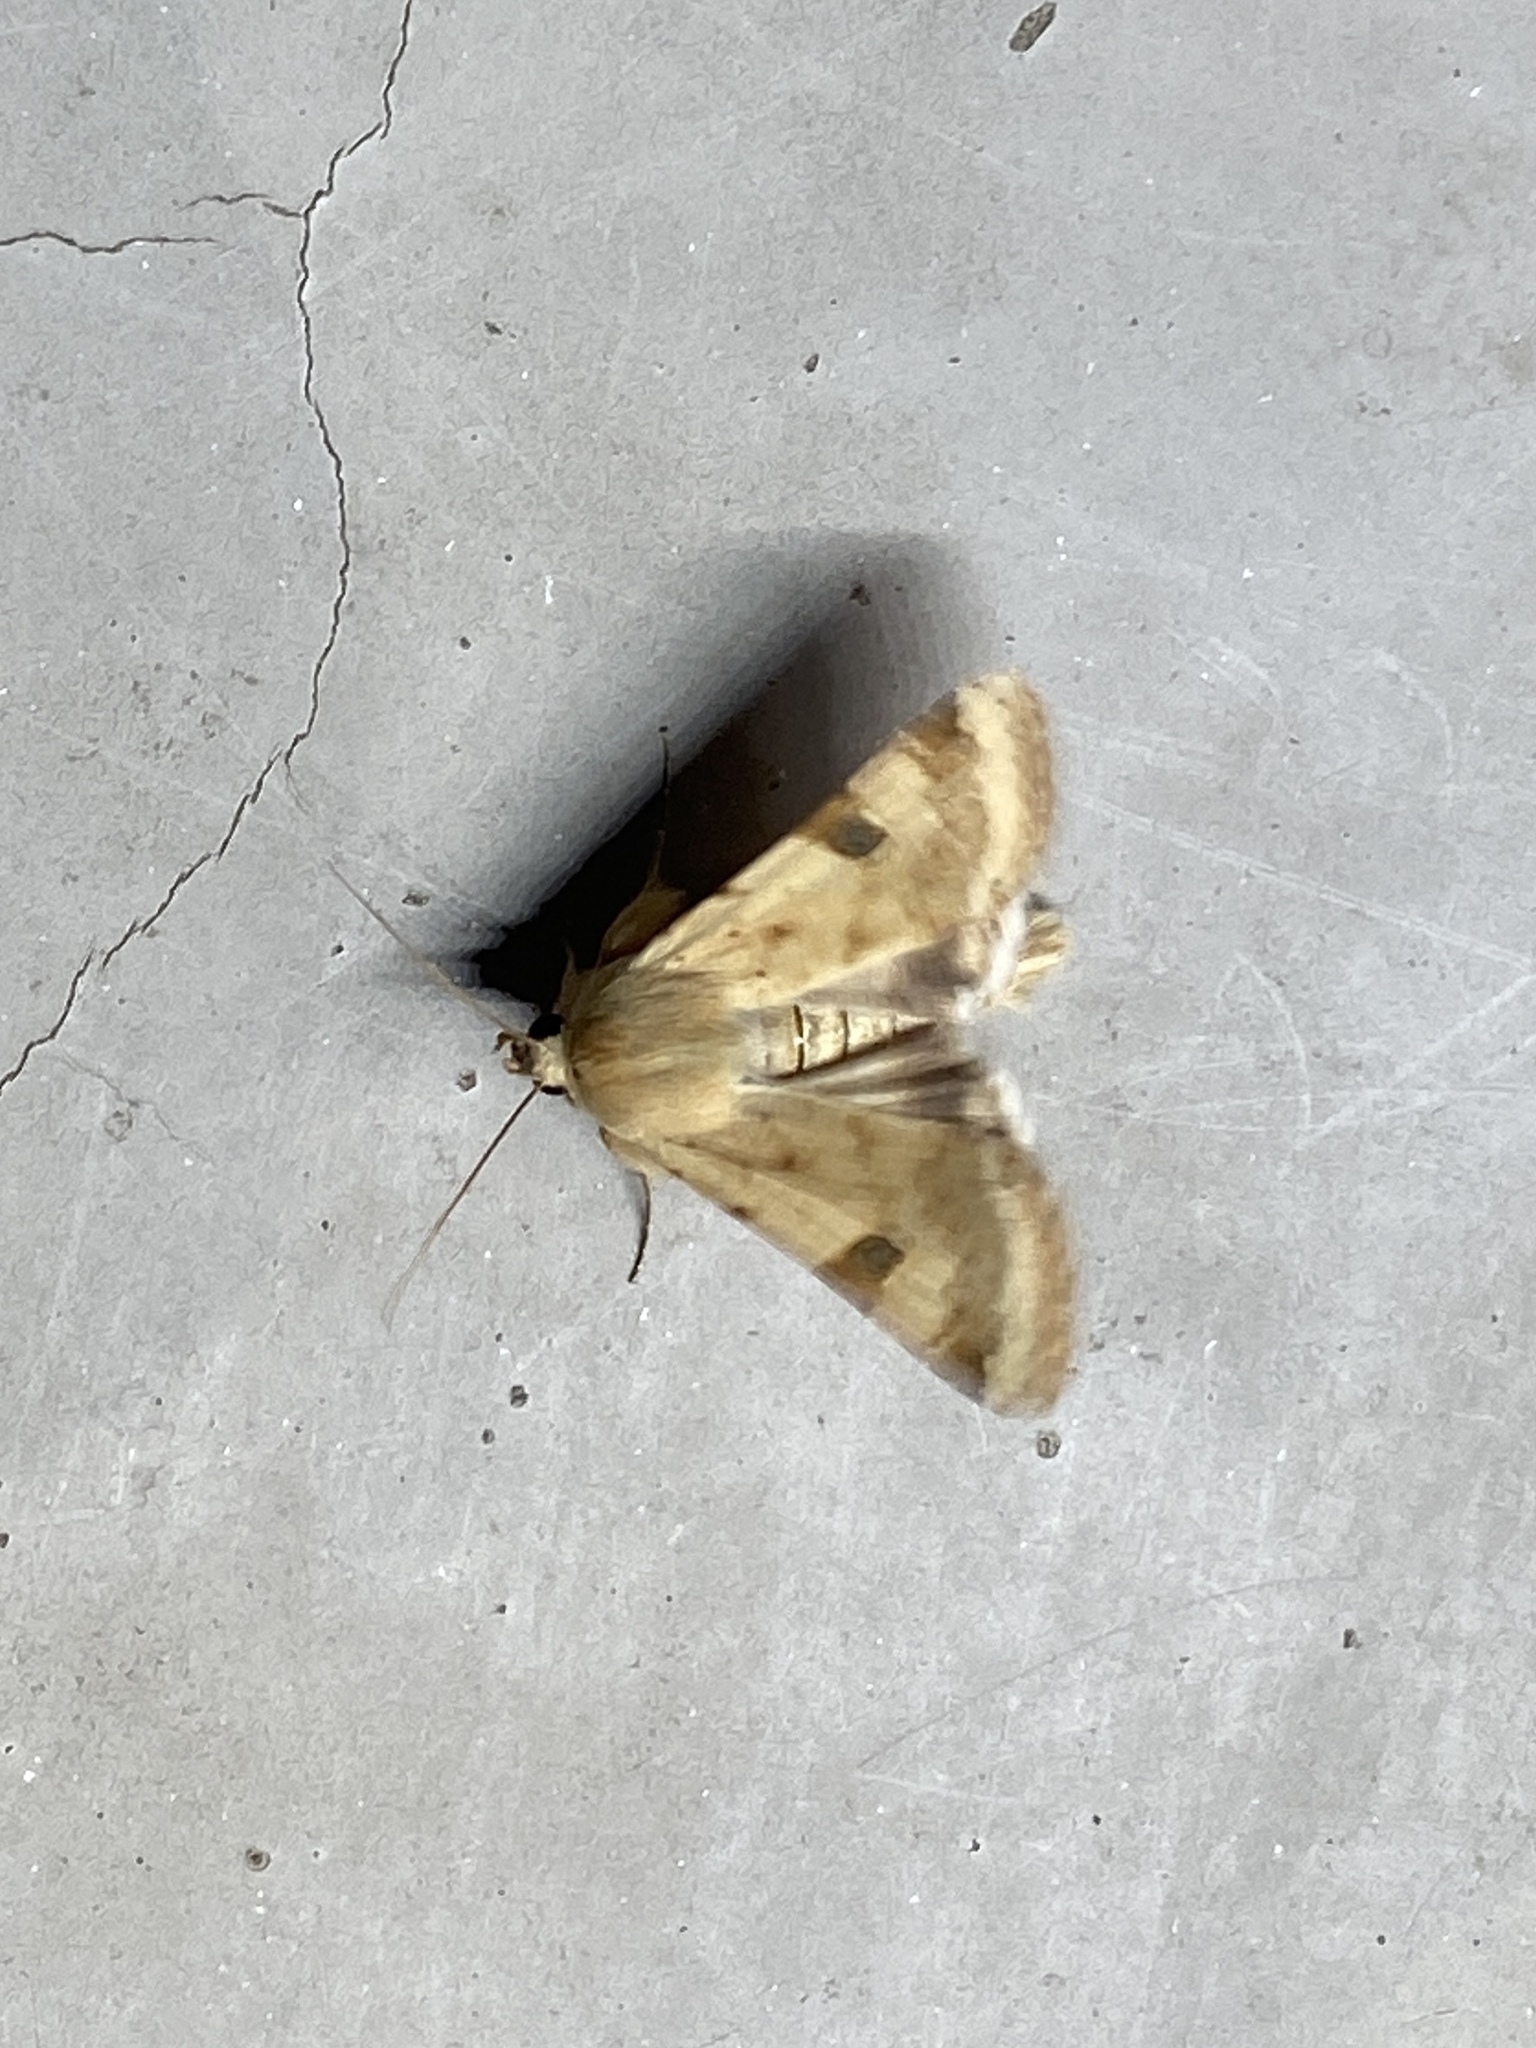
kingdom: Animalia
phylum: Arthropoda
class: Insecta
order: Lepidoptera
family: Noctuidae
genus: Heliothis
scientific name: Heliothis peltigera
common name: Bordered straw
